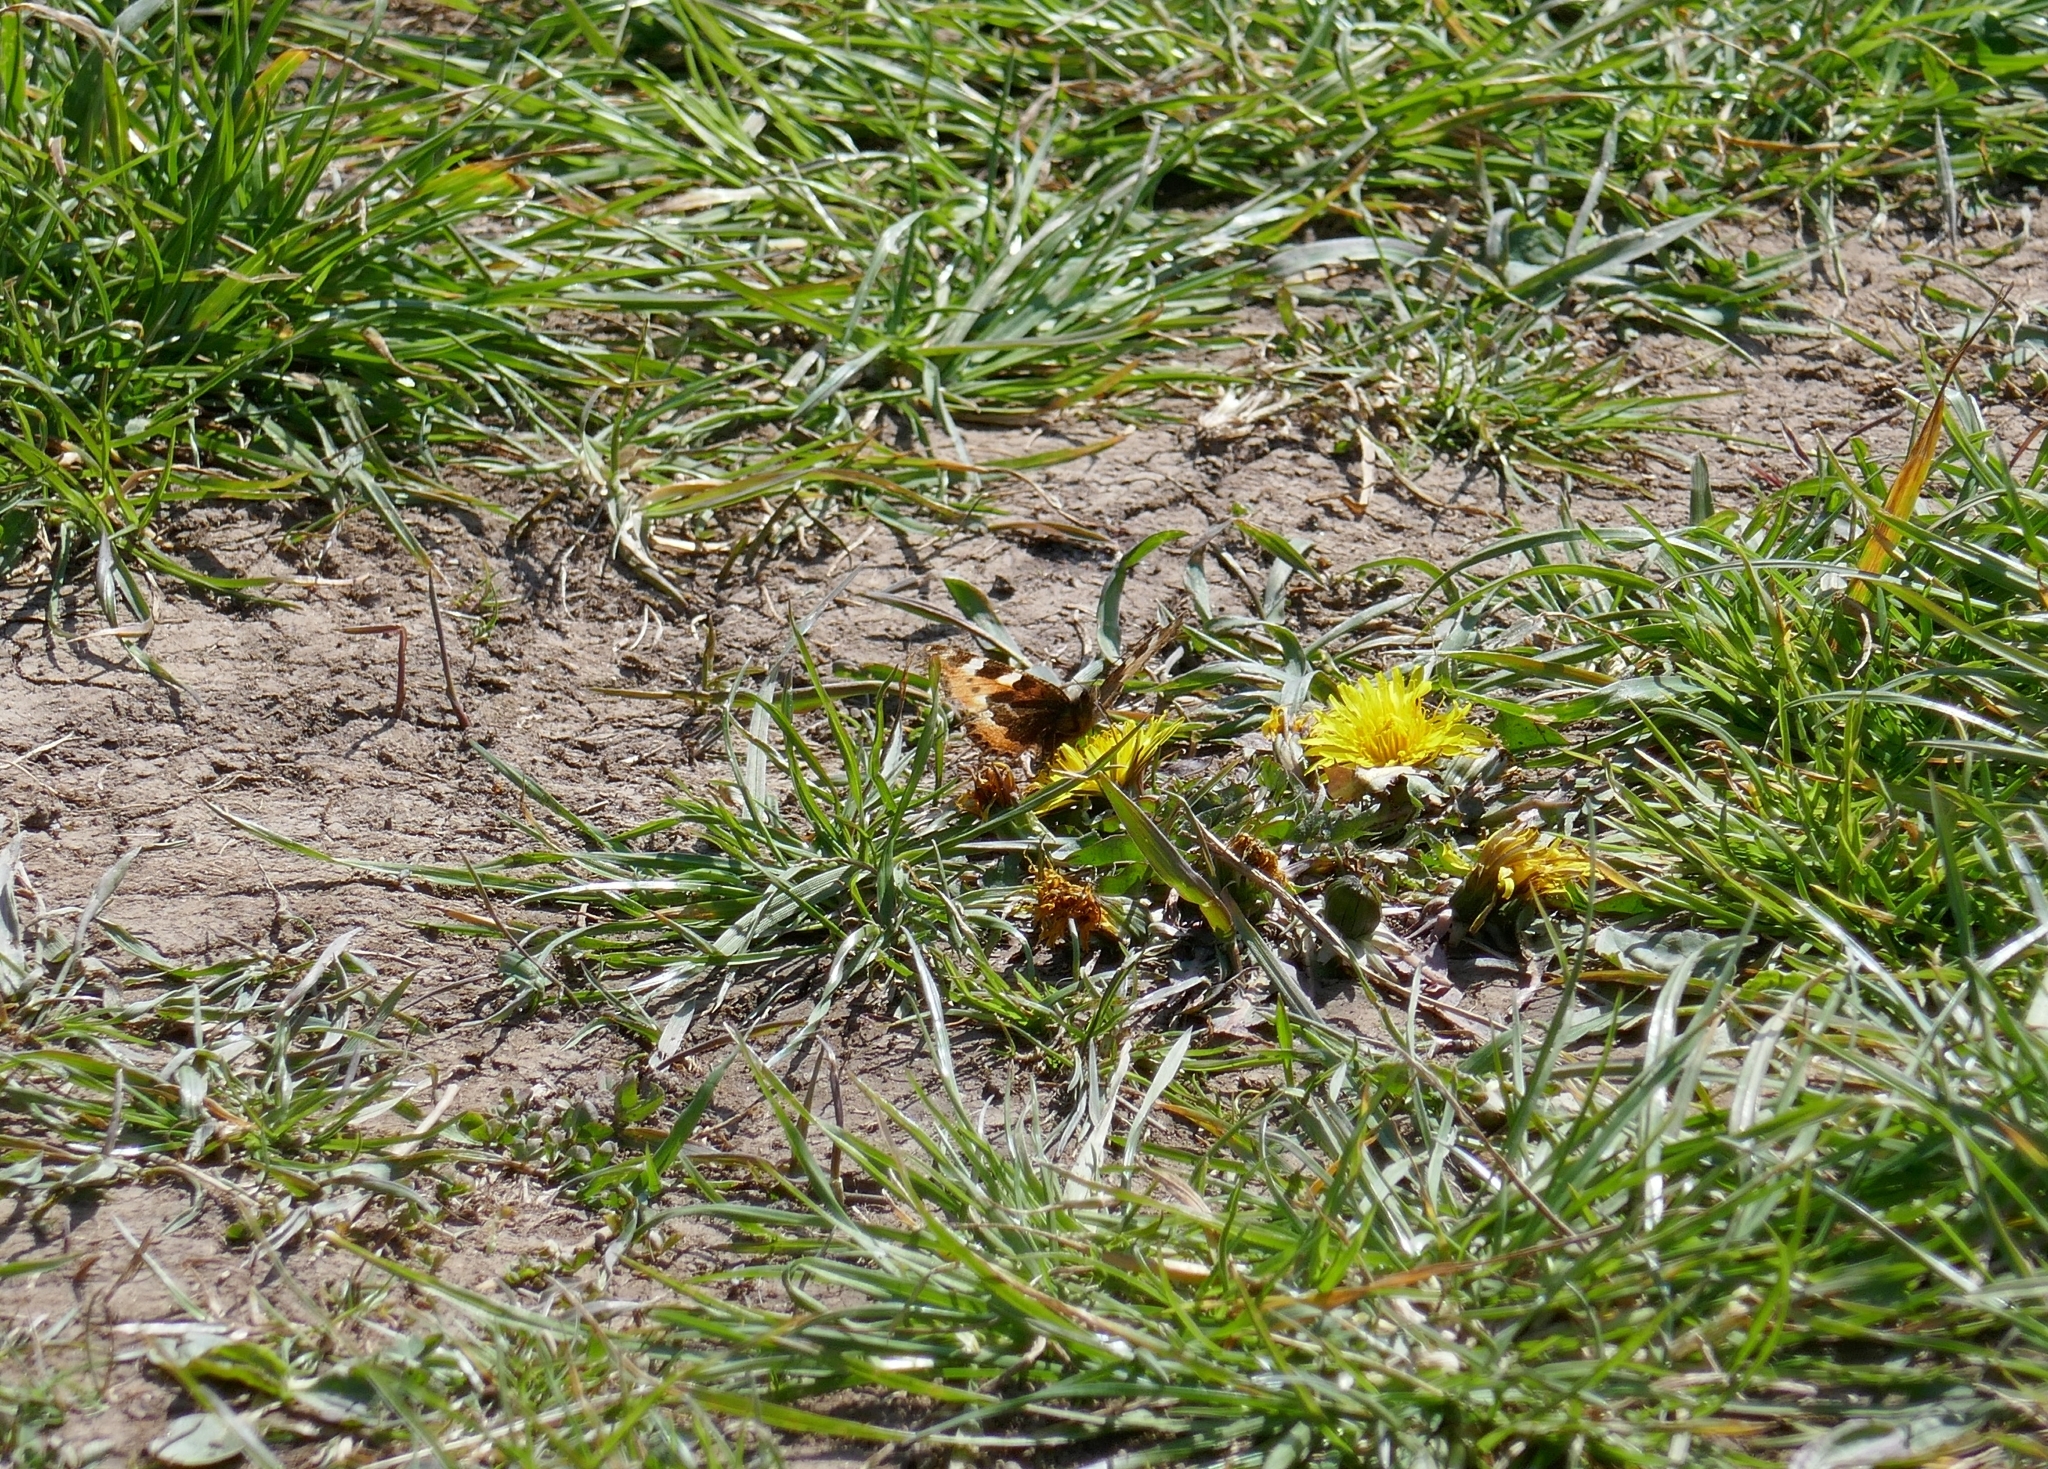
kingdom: Animalia
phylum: Arthropoda
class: Insecta
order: Lepidoptera
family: Nymphalidae
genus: Aglais
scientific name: Aglais urticae
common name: Small tortoiseshell
